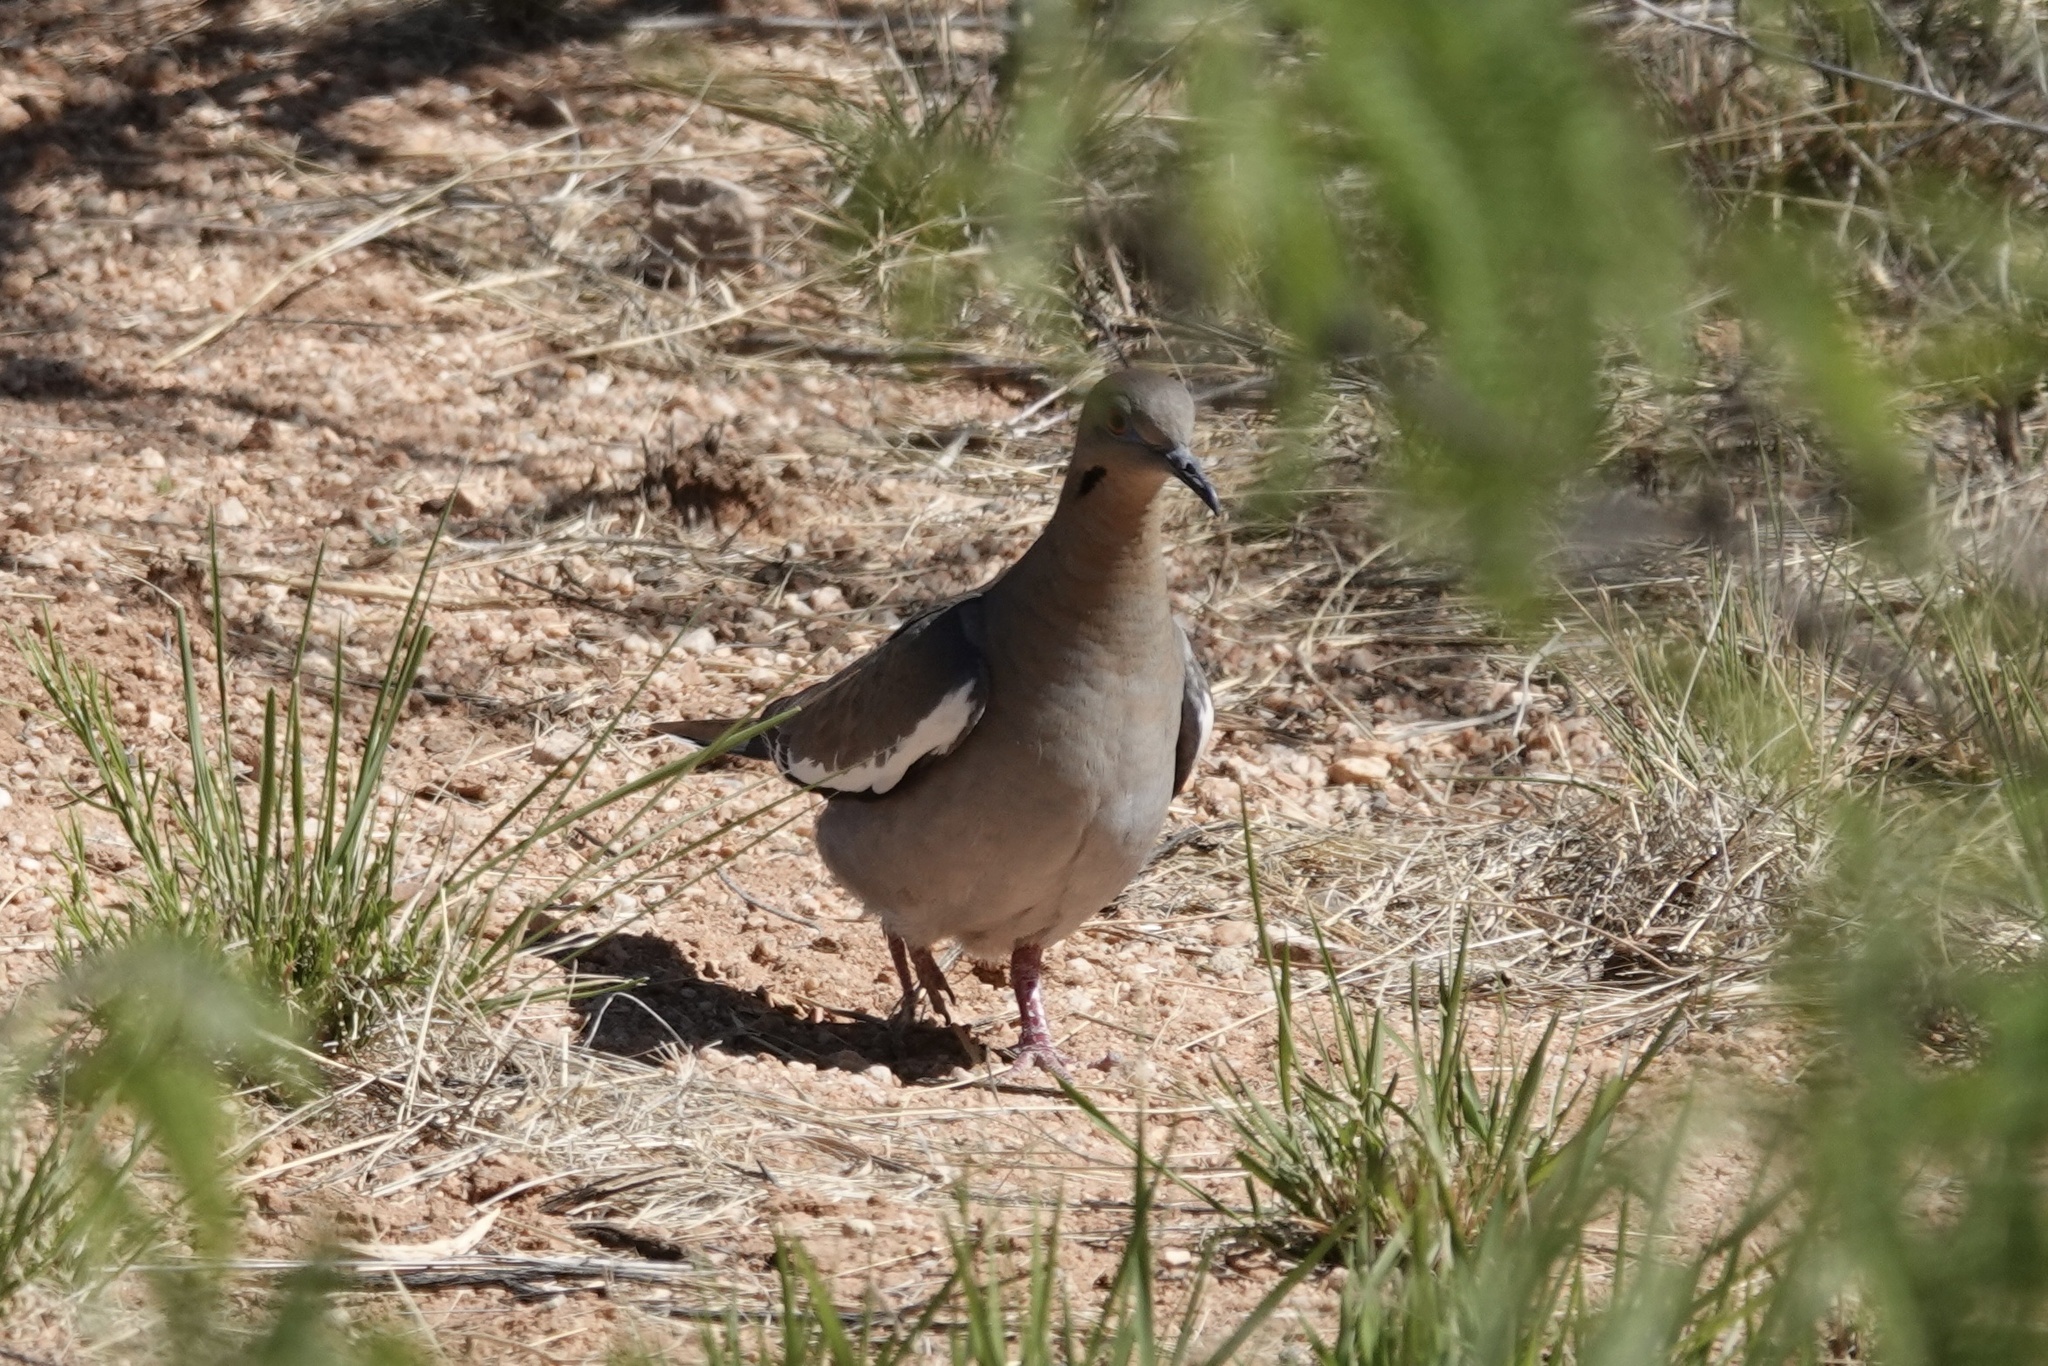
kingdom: Animalia
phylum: Chordata
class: Aves
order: Columbiformes
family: Columbidae
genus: Zenaida
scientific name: Zenaida asiatica
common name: White-winged dove
